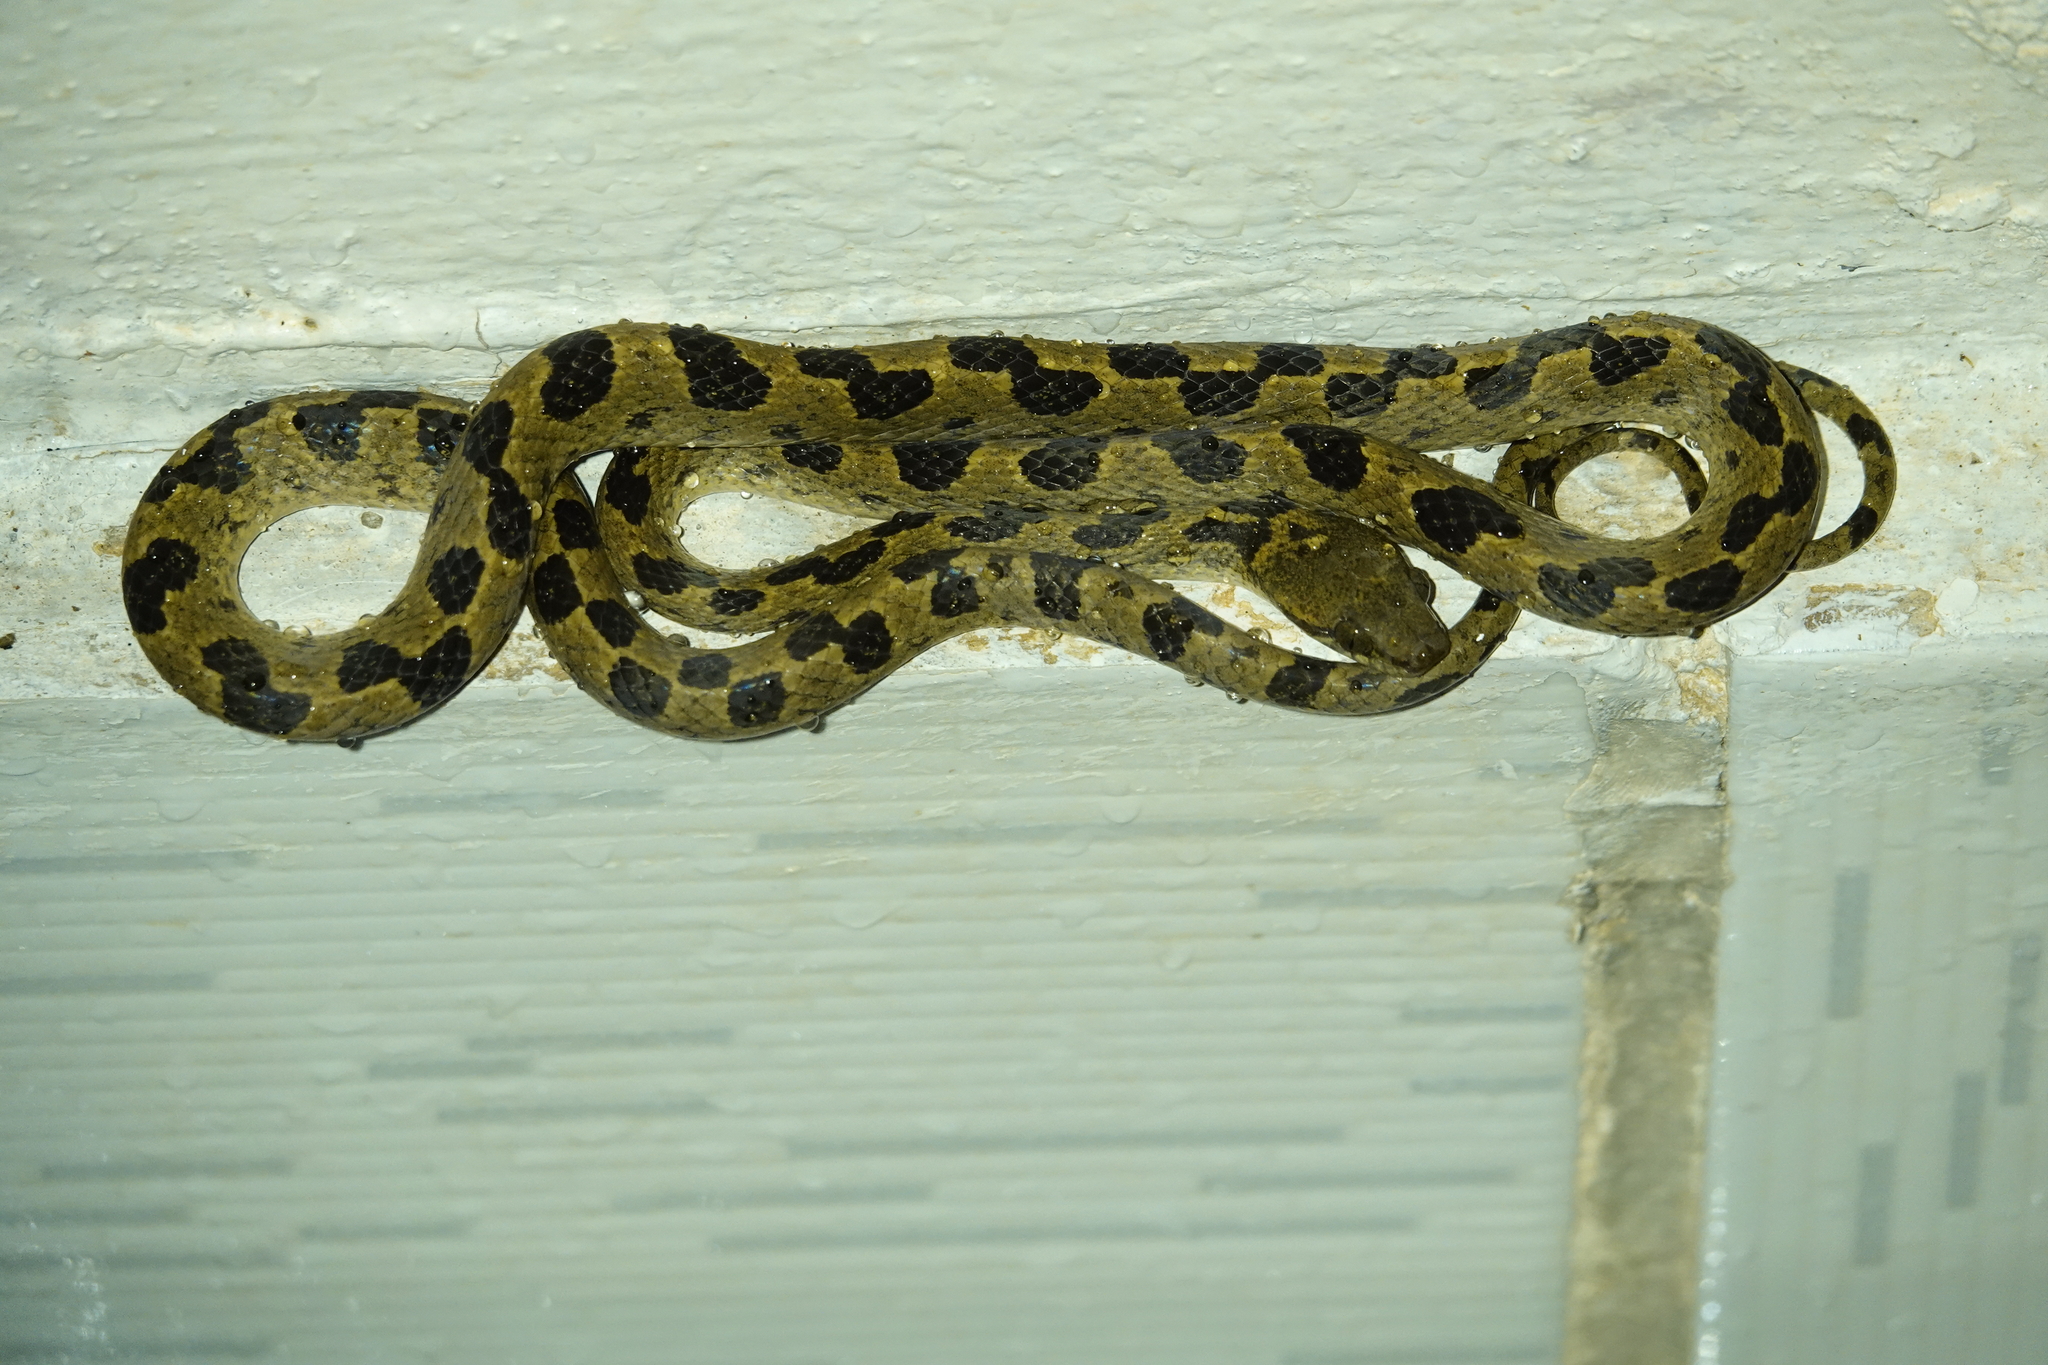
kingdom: Animalia
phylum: Chordata
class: Squamata
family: Colubridae
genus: Leptodeira
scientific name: Leptodeira annulata
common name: Banded cat-eyed snake
